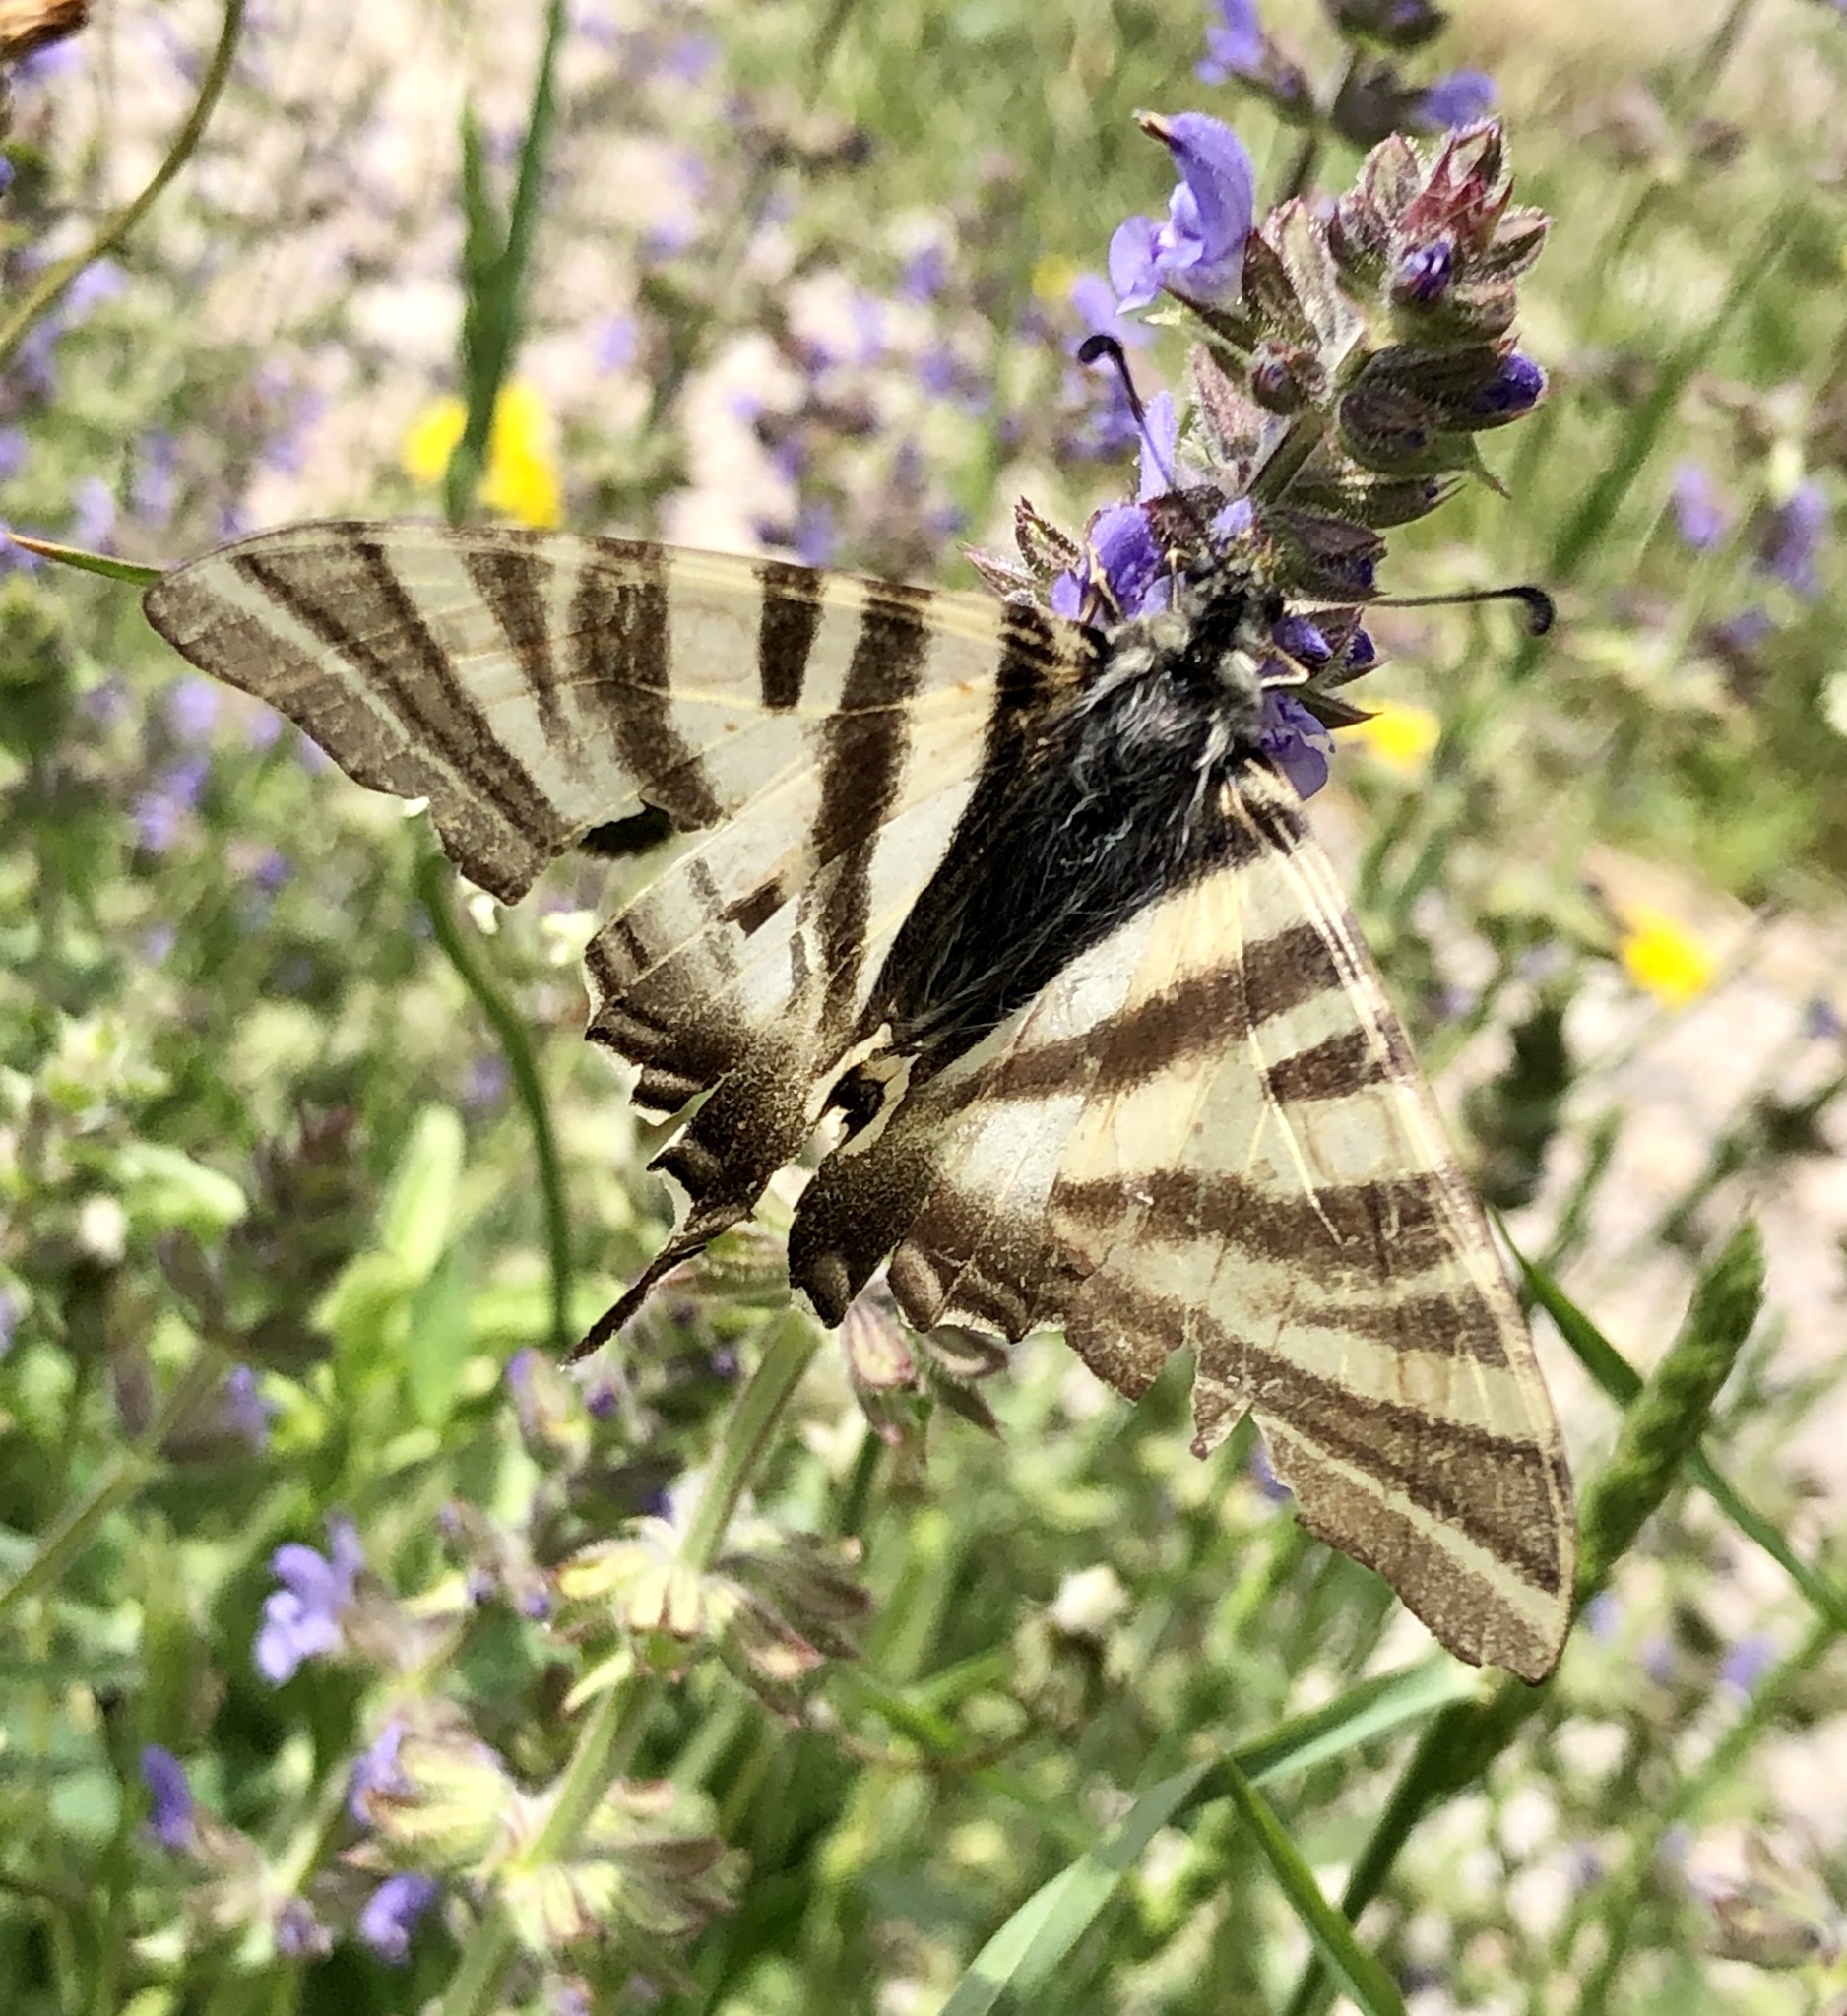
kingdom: Animalia
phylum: Arthropoda
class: Insecta
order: Lepidoptera
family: Papilionidae
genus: Iphiclides
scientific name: Iphiclides feisthamelii
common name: Iberian scarce swallowtail
